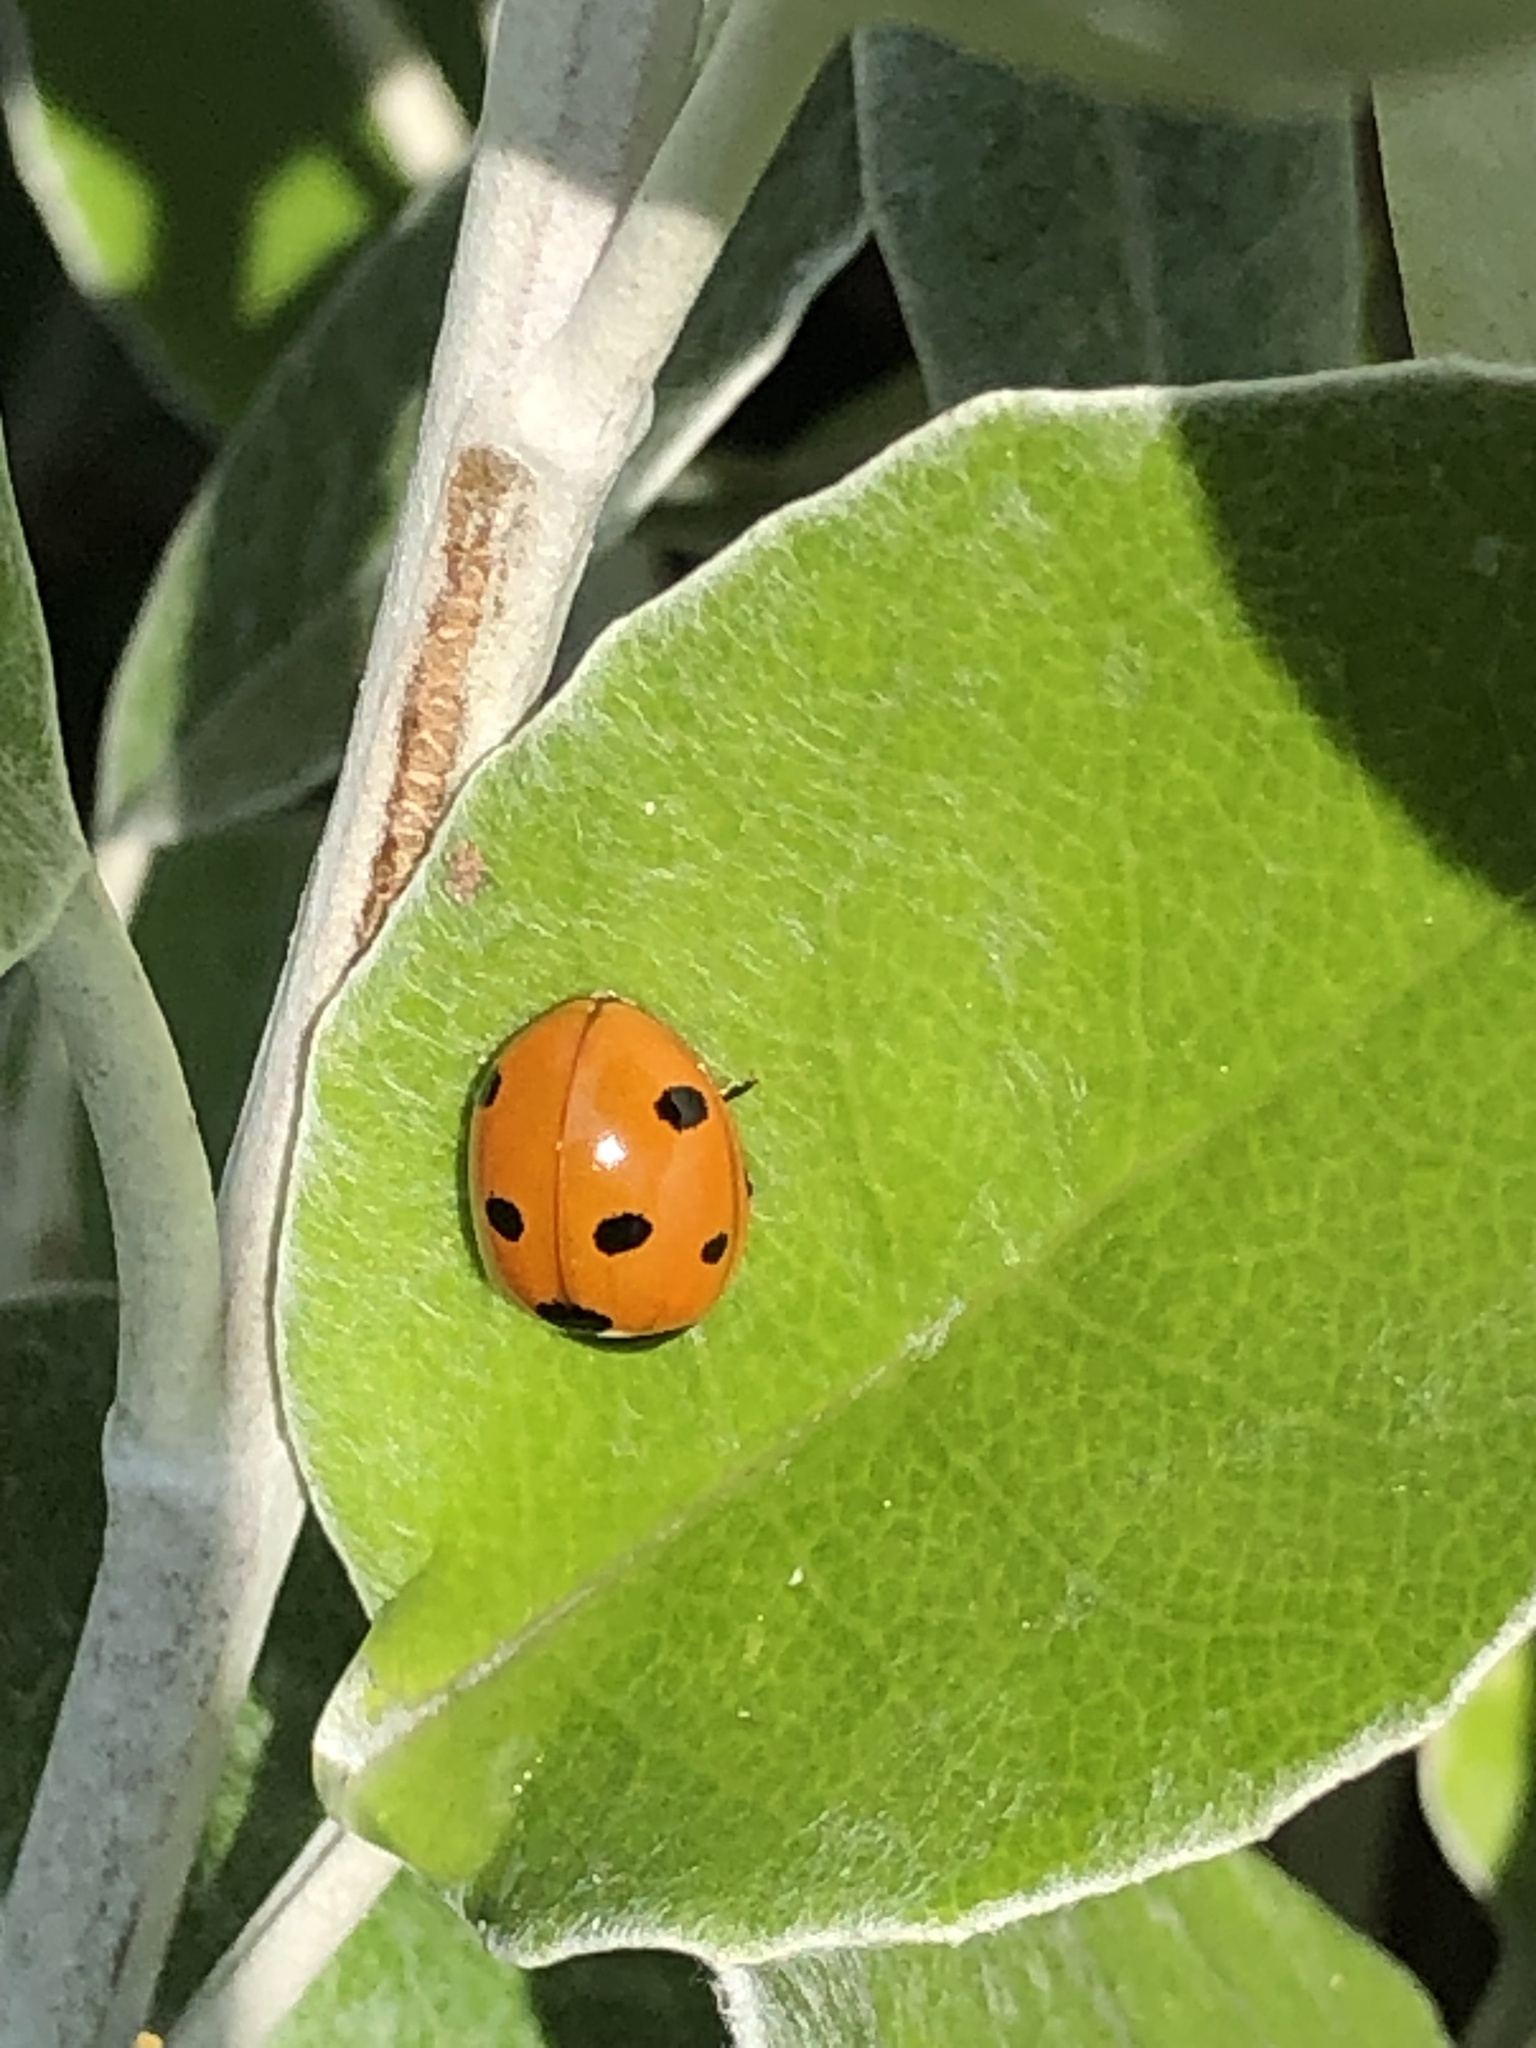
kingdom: Animalia
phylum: Arthropoda
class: Insecta
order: Coleoptera
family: Coccinellidae
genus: Coccinella
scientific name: Coccinella septempunctata
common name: Sevenspotted lady beetle
